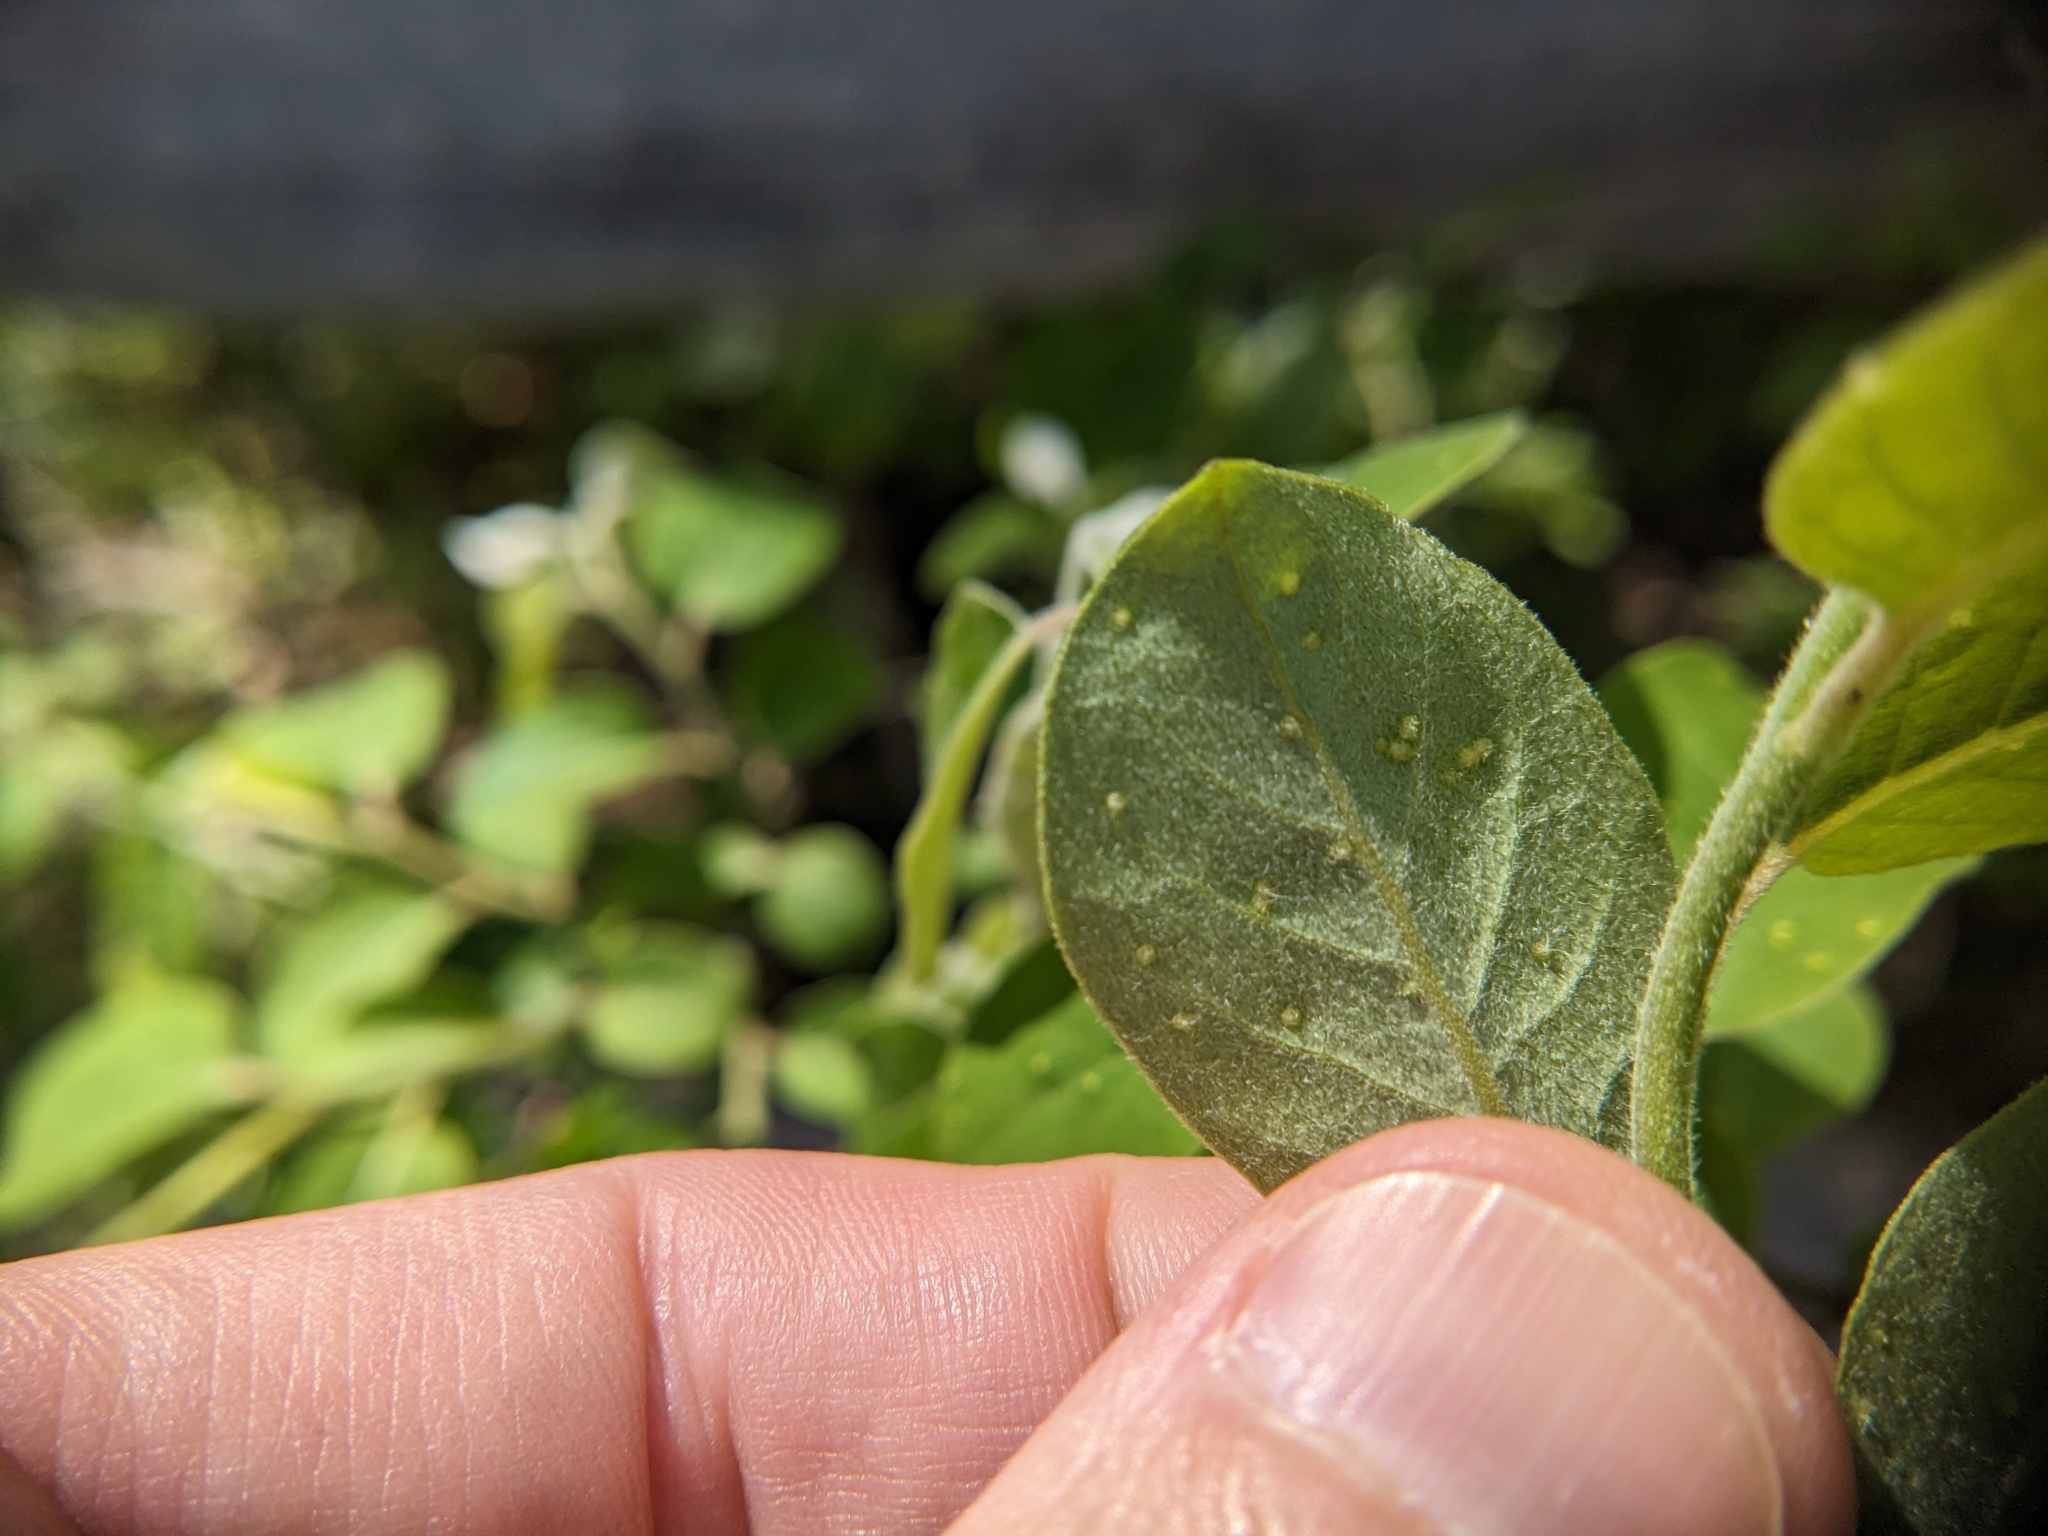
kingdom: Animalia
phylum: Arthropoda
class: Arachnida
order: Trombidiformes
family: Eriophyidae
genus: Aceria
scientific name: Aceria
